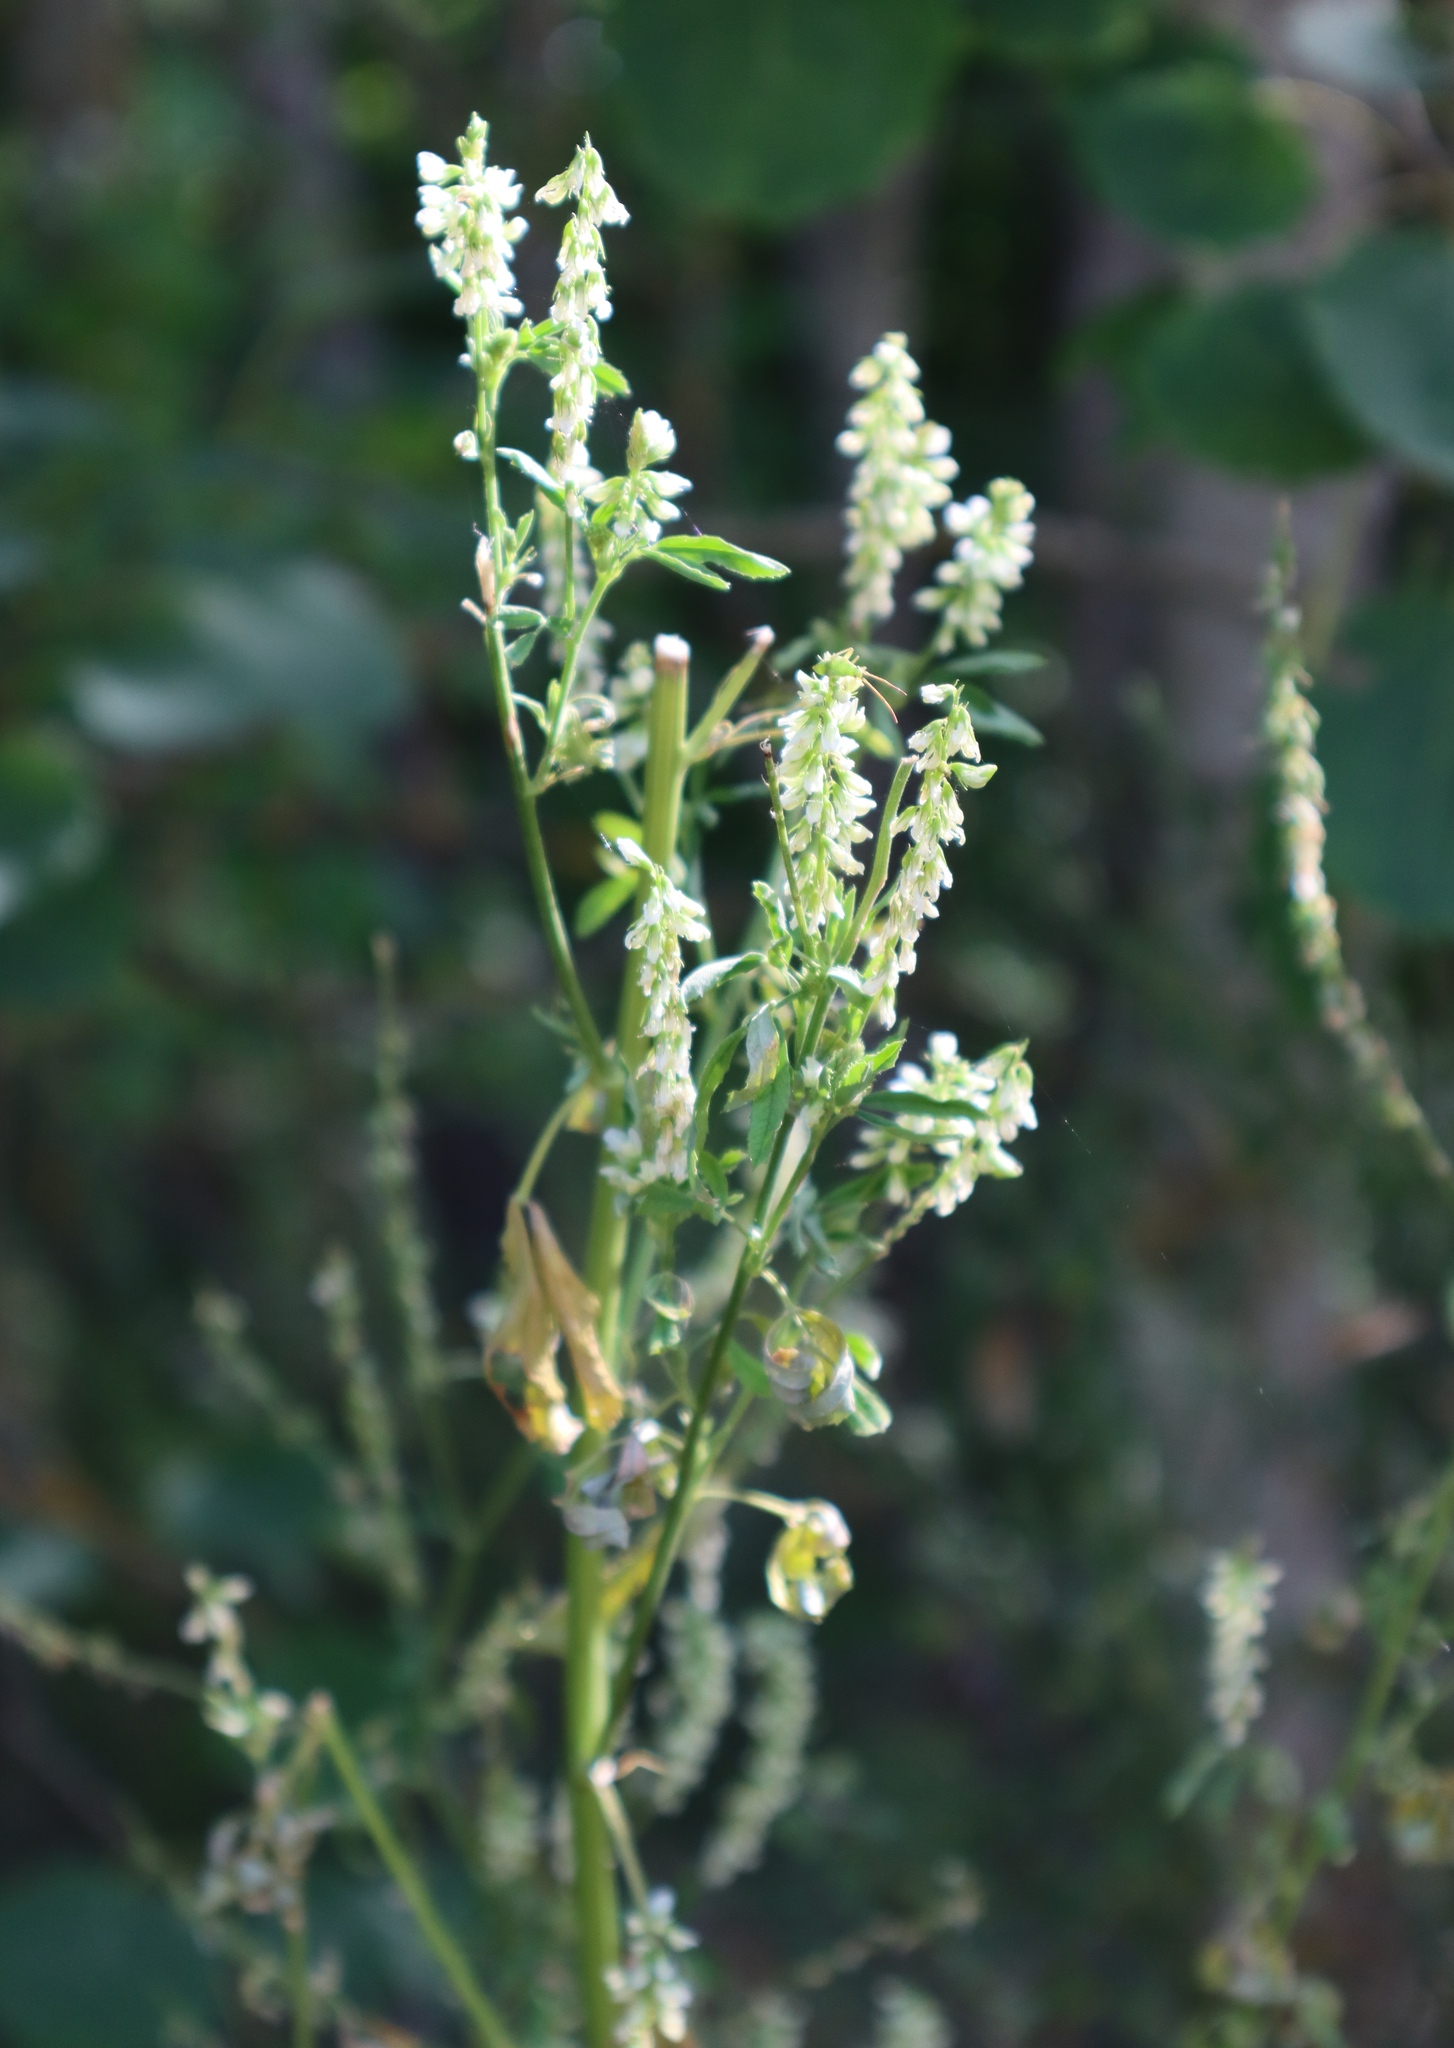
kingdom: Plantae
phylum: Tracheophyta
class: Magnoliopsida
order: Fabales
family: Fabaceae
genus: Melilotus
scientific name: Melilotus albus
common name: White melilot
